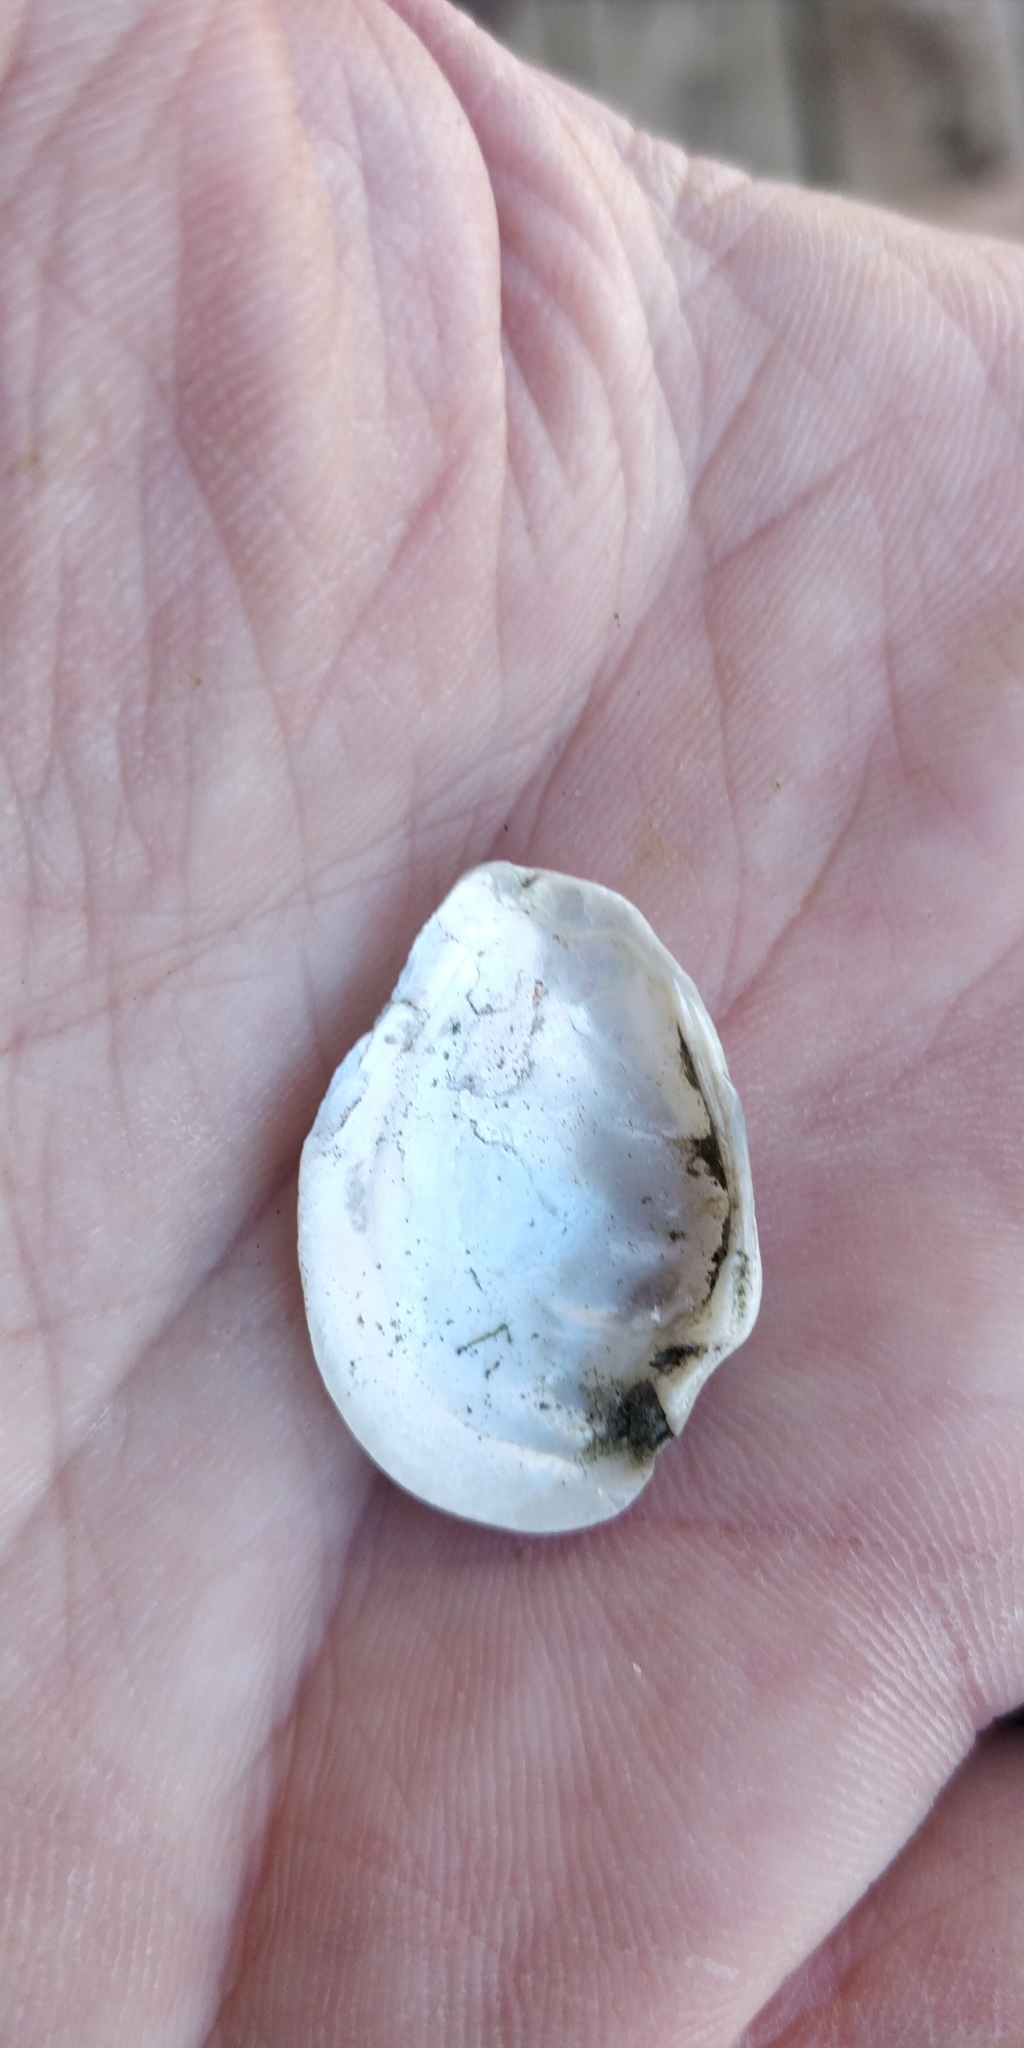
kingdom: Animalia
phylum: Mollusca
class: Bivalvia
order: Unionida
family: Unionidae
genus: Truncilla
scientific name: Truncilla donaciformis
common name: Fawnsfoot
